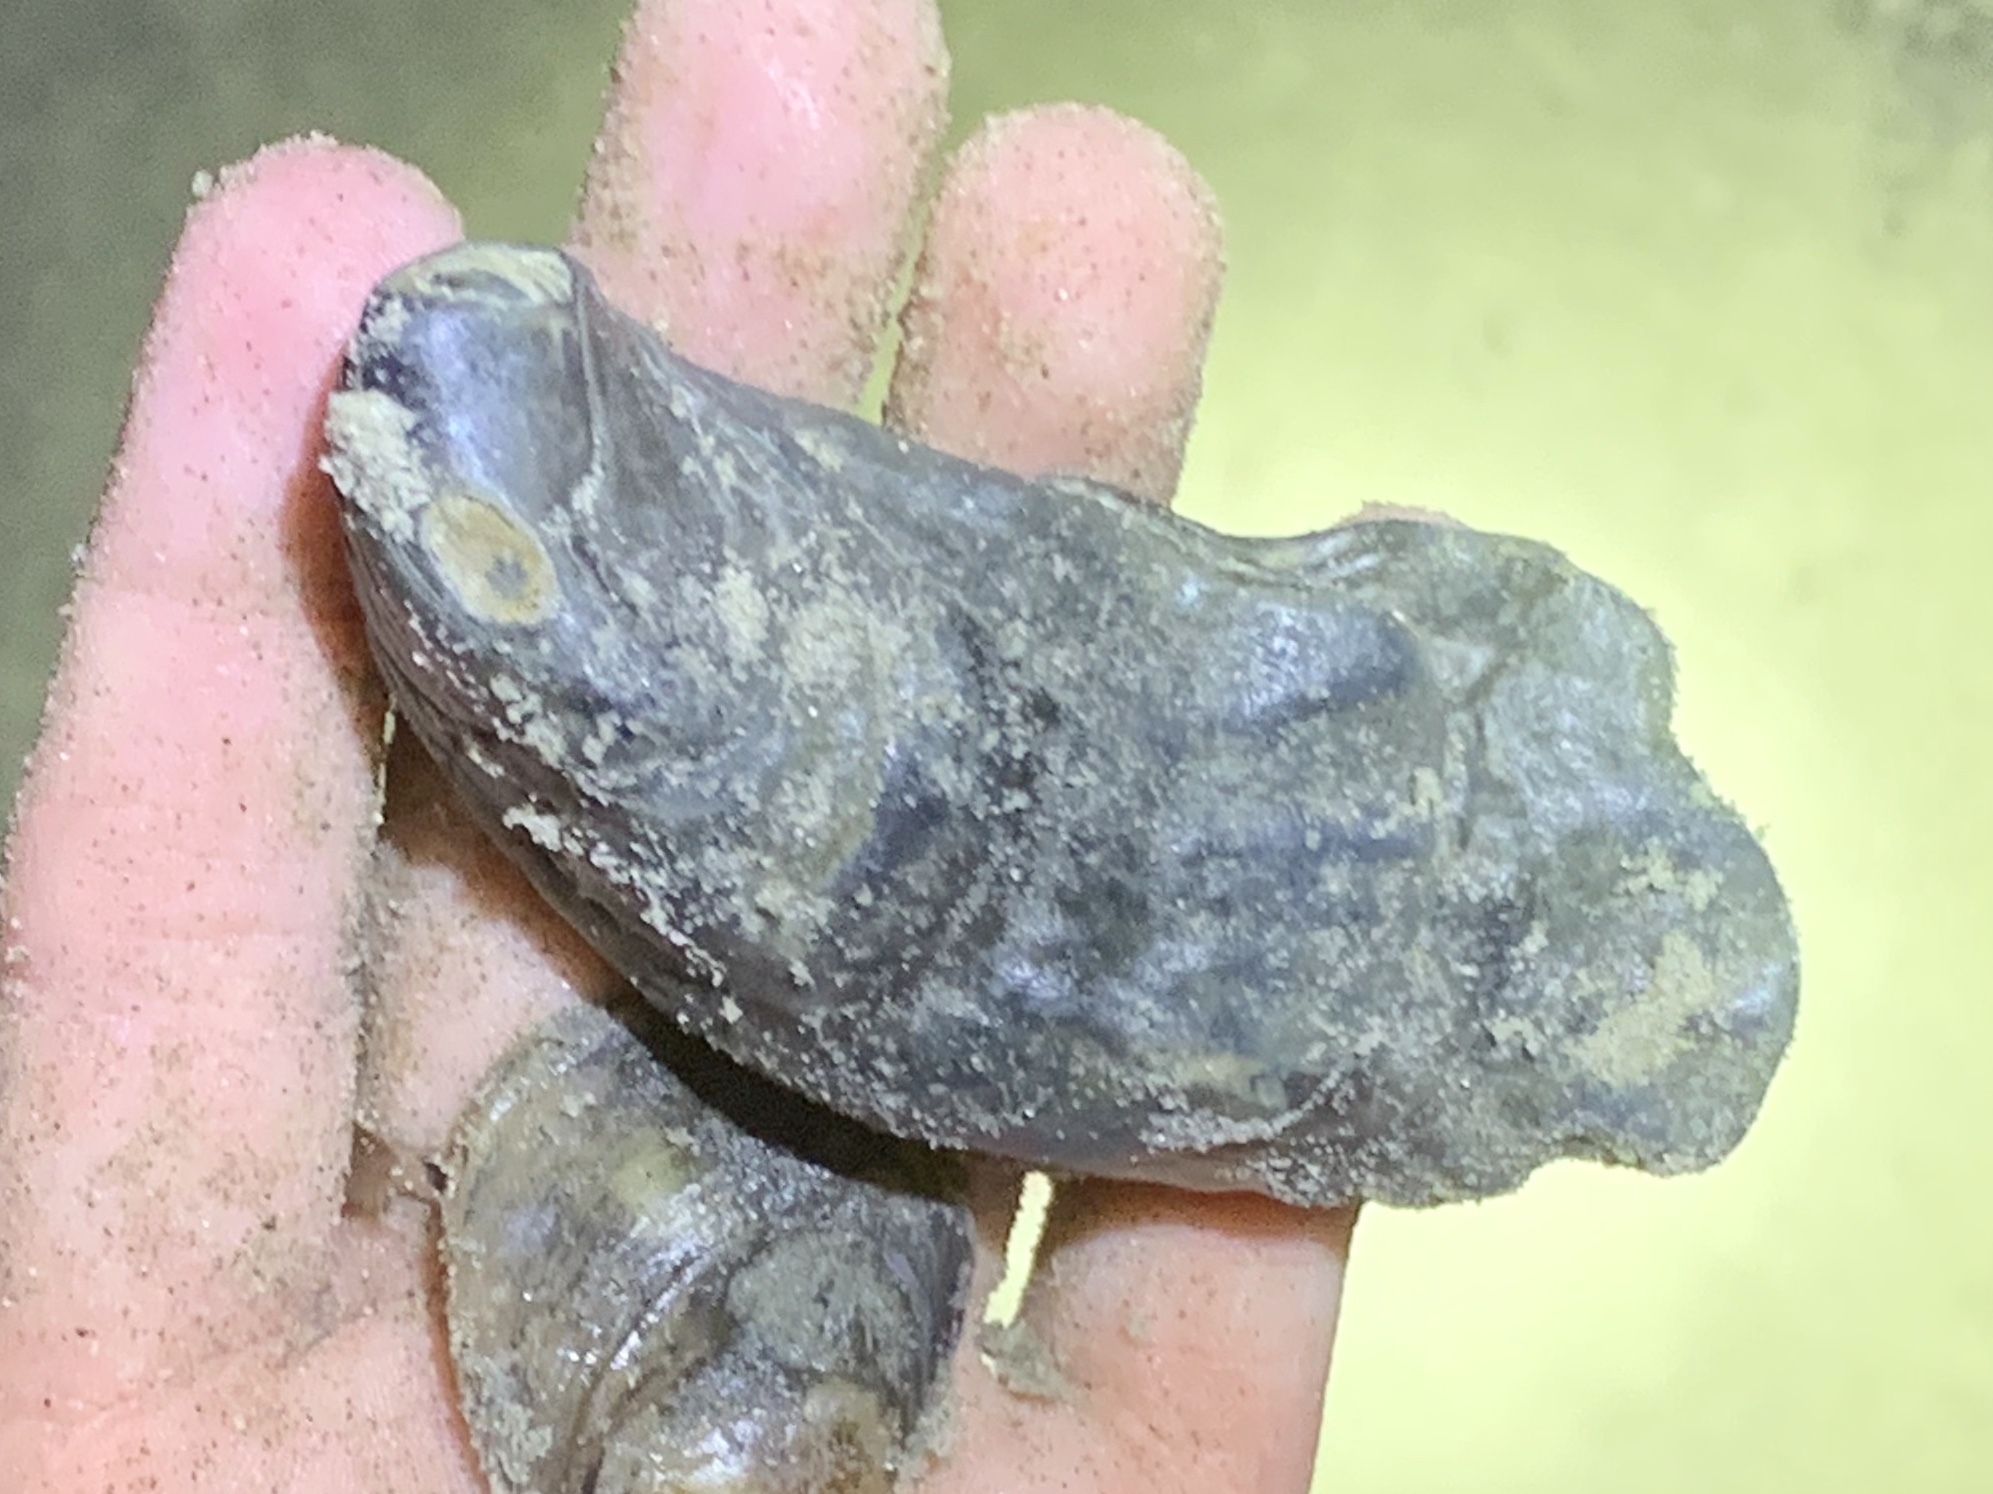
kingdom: Animalia
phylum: Mollusca
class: Bivalvia
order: Ostreida
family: Ostreidae
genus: Crassostrea
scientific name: Crassostrea virginica
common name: American oyster
